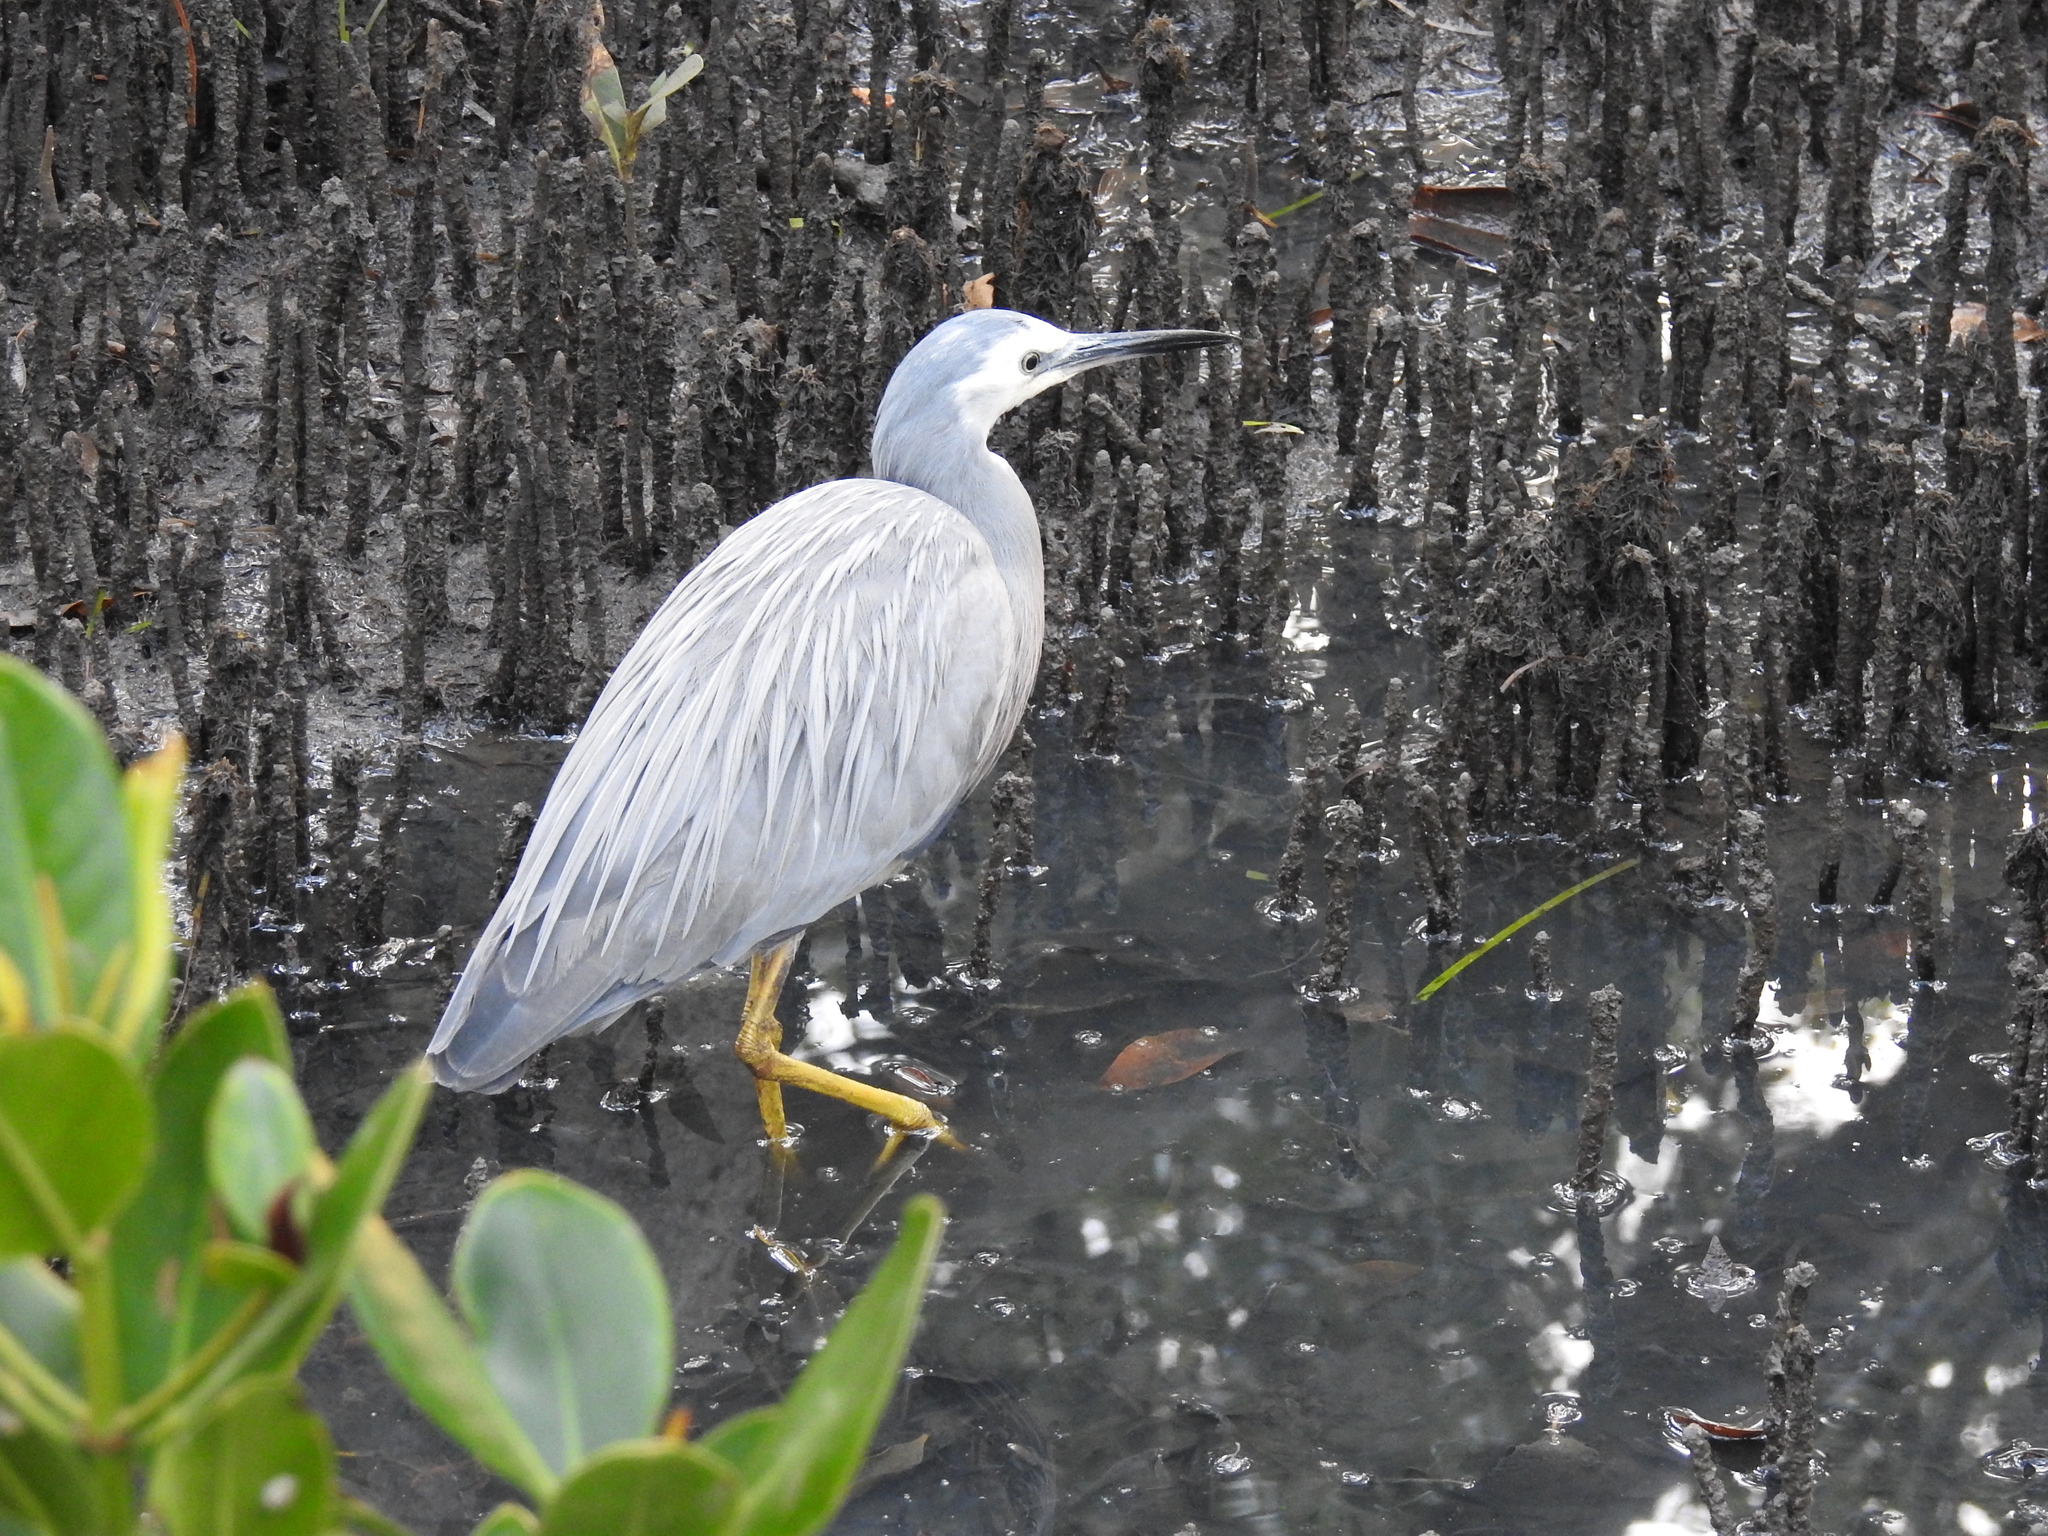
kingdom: Animalia
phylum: Chordata
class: Aves
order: Pelecaniformes
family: Ardeidae
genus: Egretta
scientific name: Egretta novaehollandiae
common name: White-faced heron
